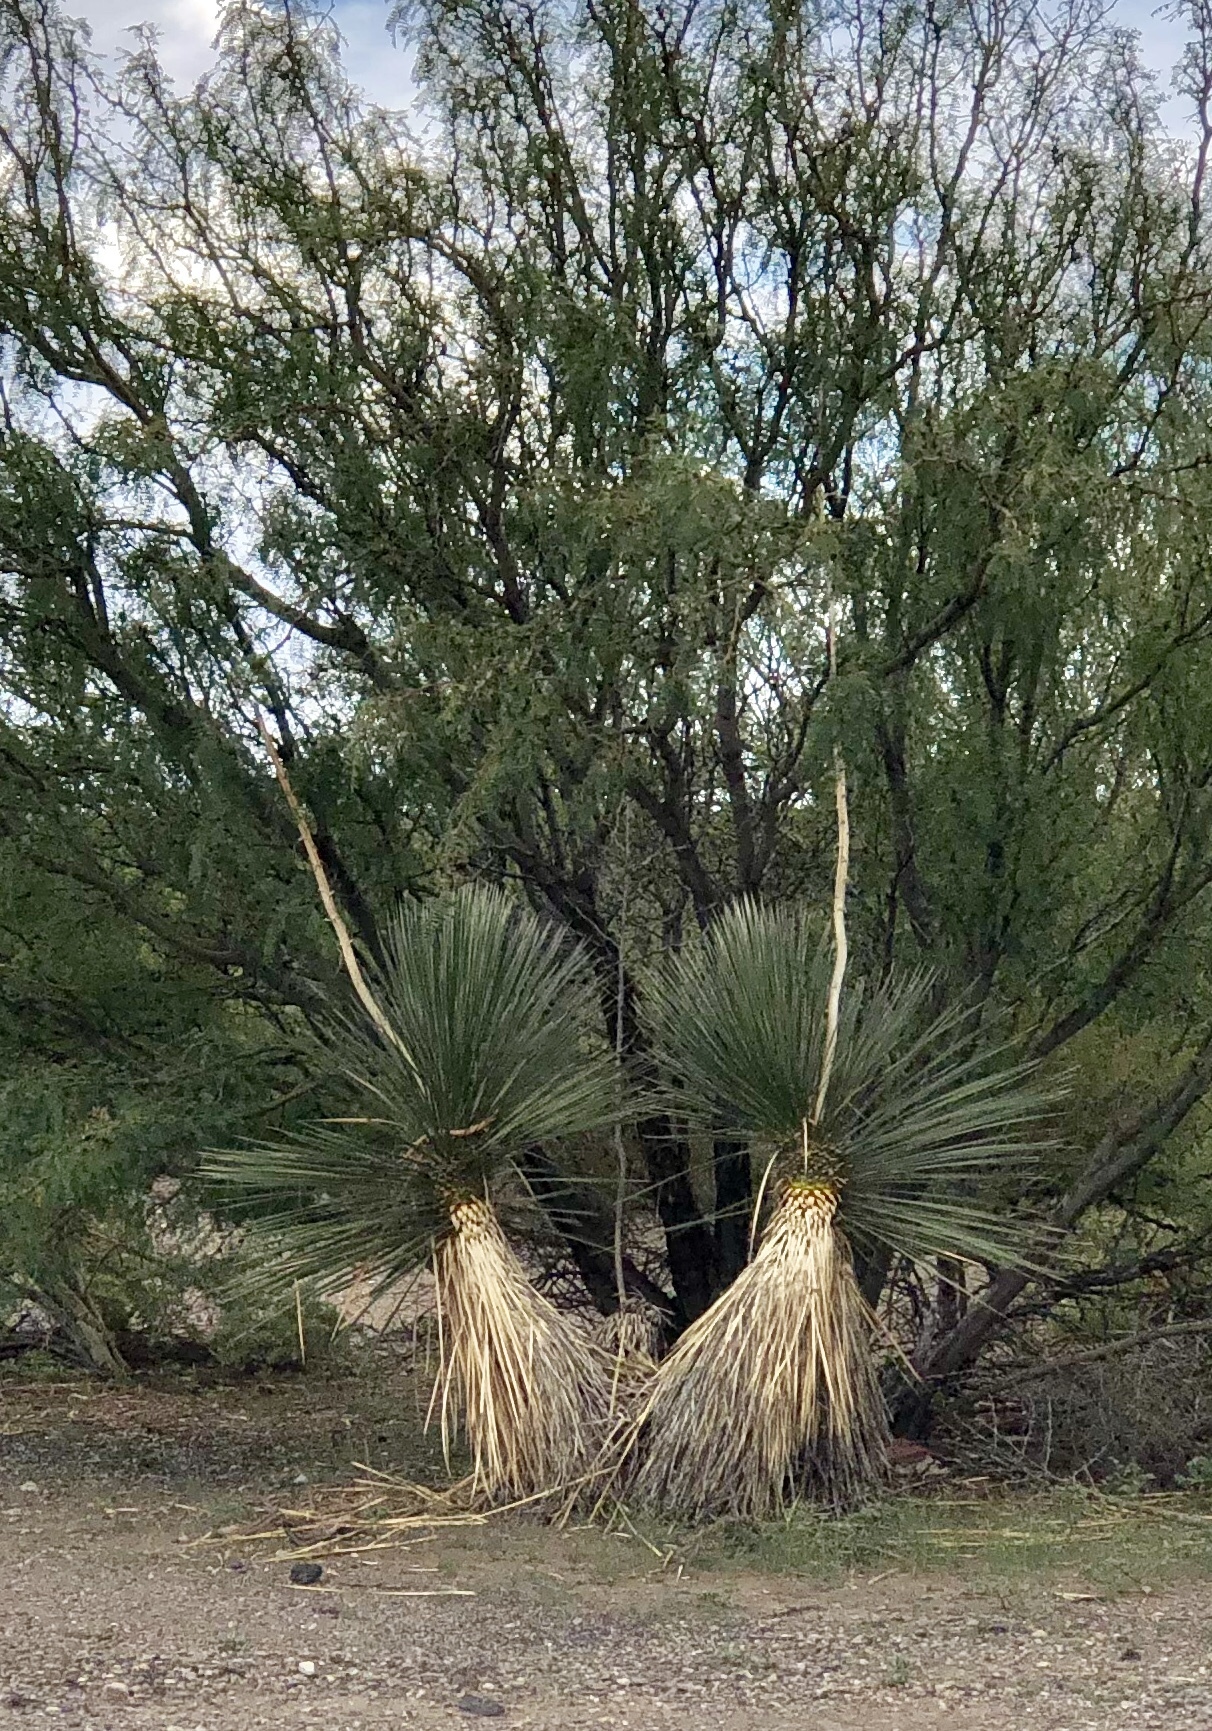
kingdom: Plantae
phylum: Tracheophyta
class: Liliopsida
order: Asparagales
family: Asparagaceae
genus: Yucca
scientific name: Yucca elata
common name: Palmella
